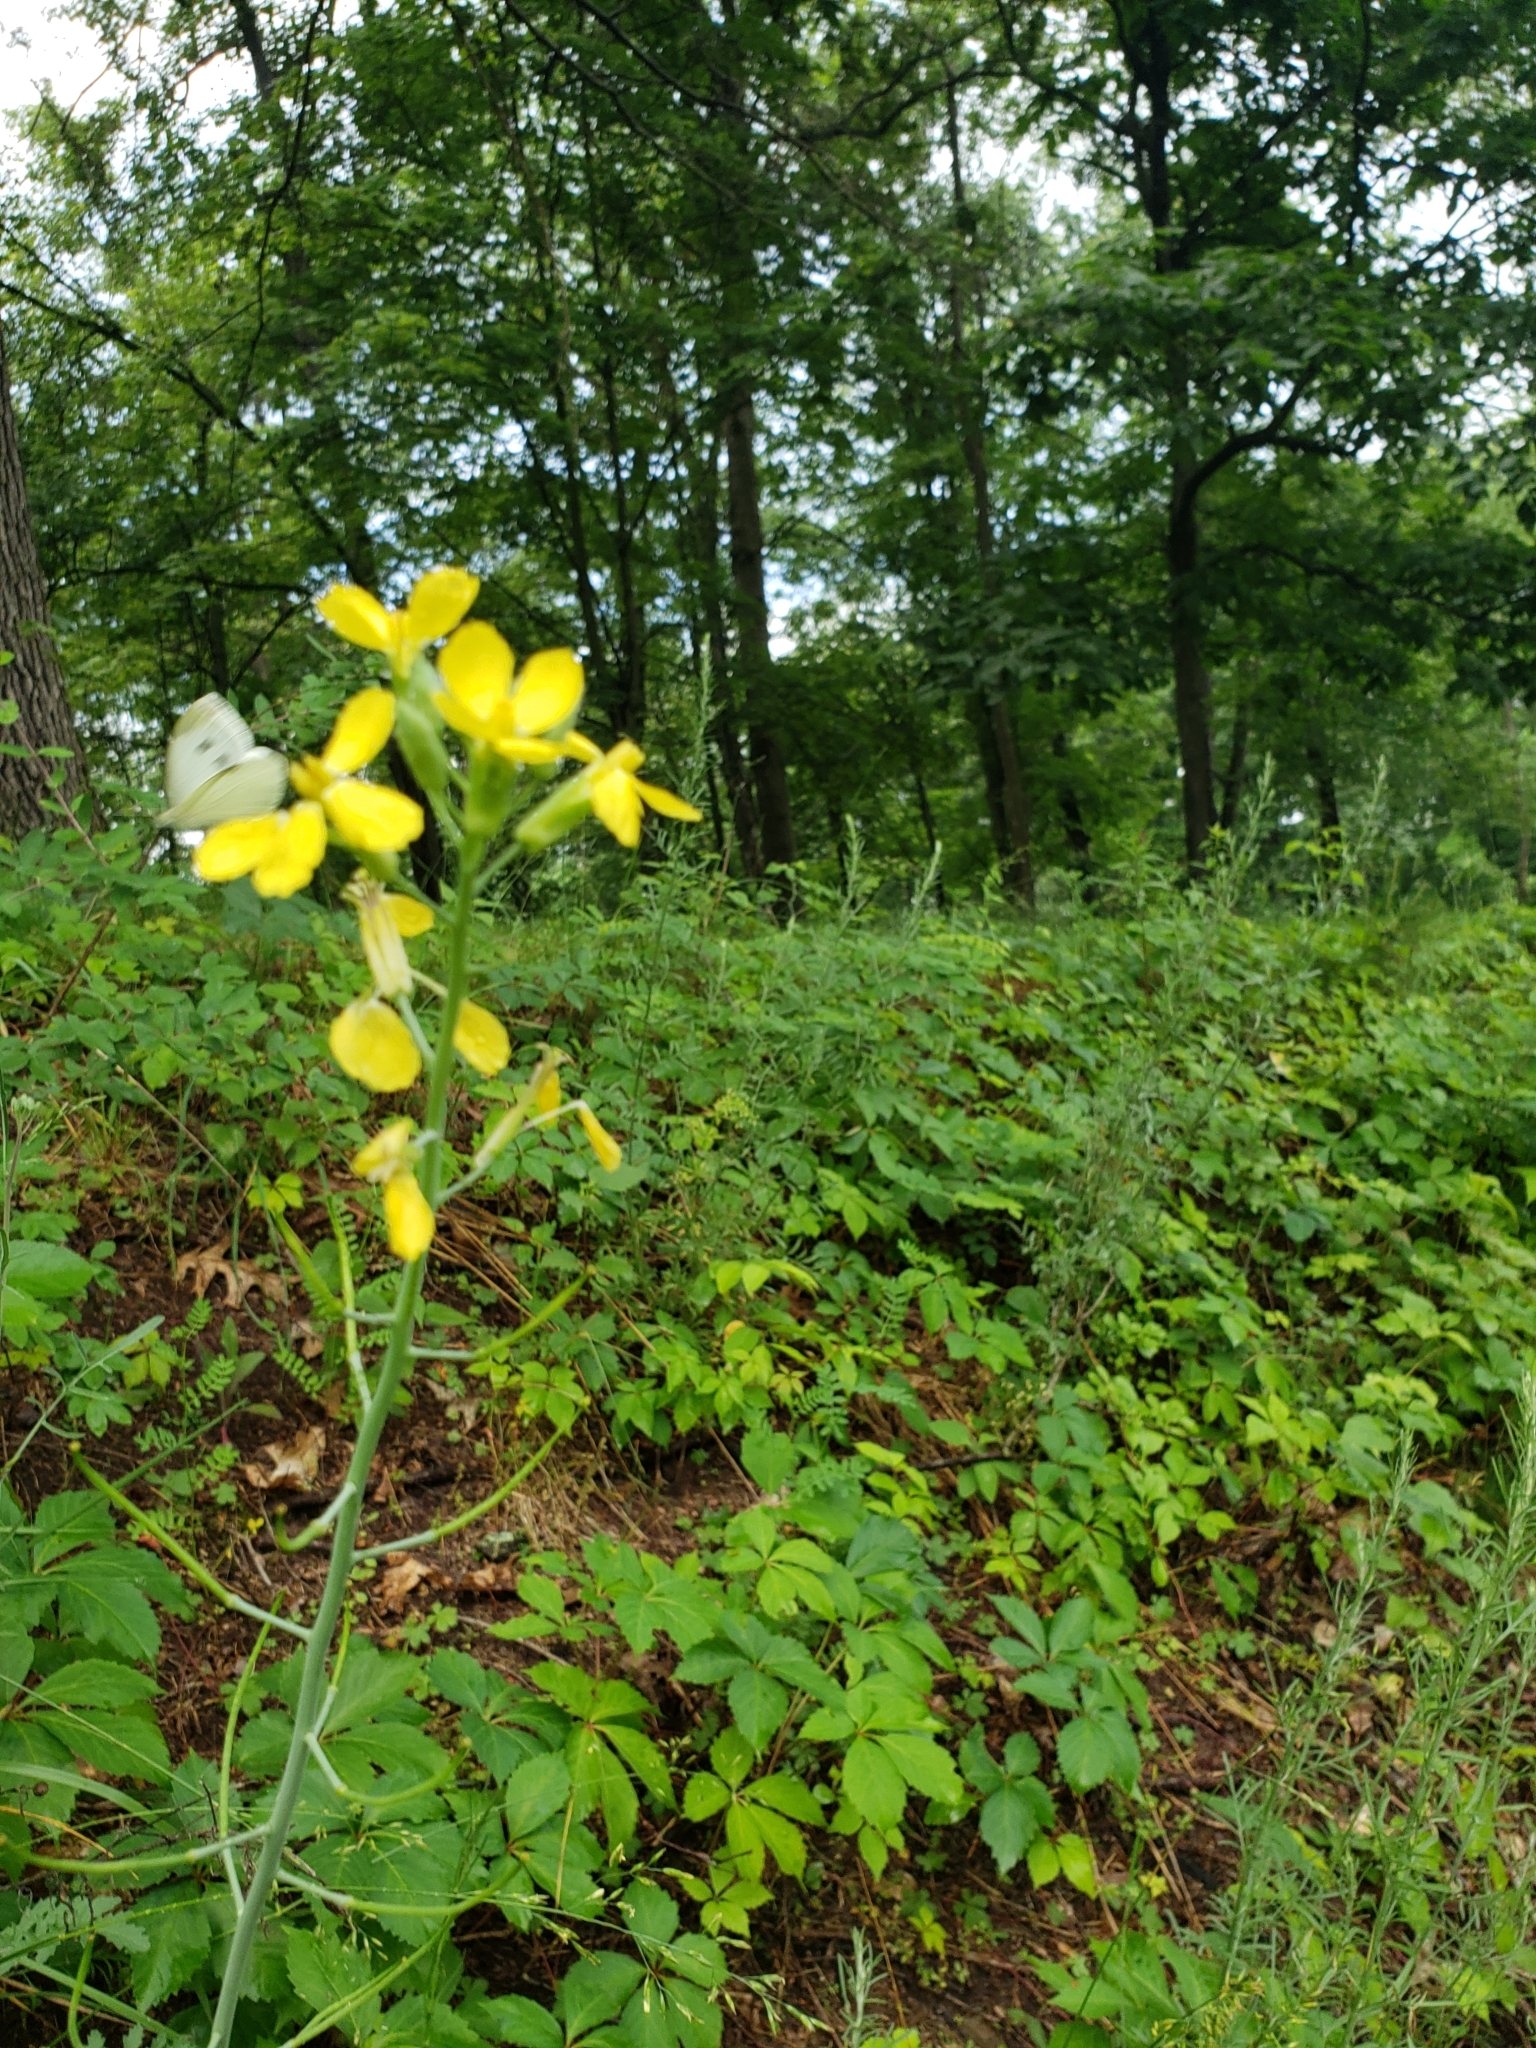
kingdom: Animalia
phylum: Arthropoda
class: Insecta
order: Lepidoptera
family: Pieridae
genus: Pieris
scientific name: Pieris rapae
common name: Small white
